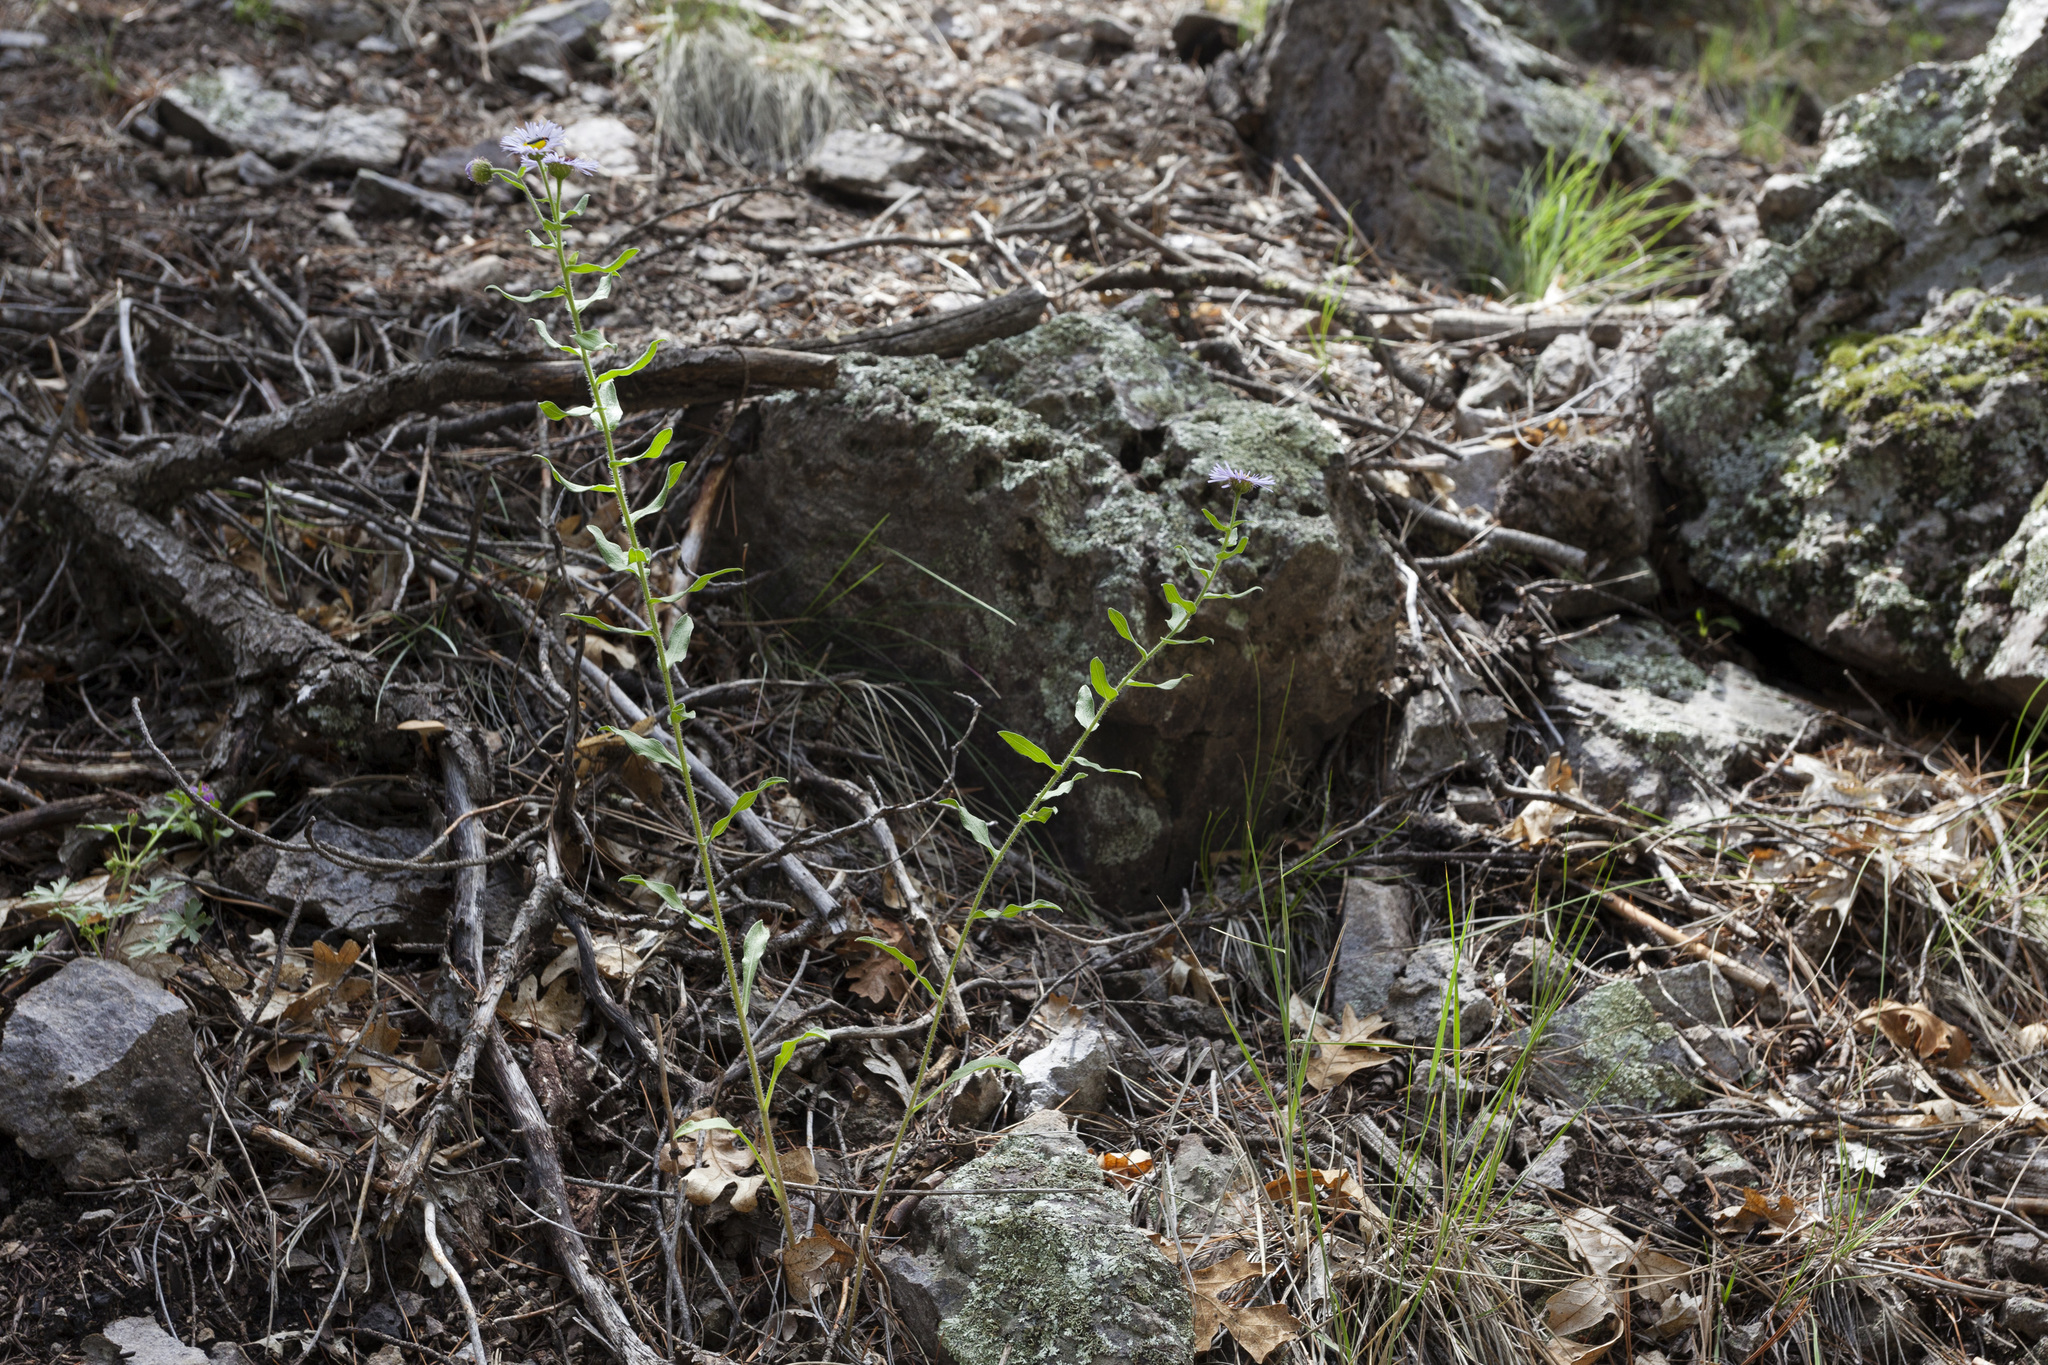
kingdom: Plantae
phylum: Tracheophyta
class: Magnoliopsida
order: Asterales
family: Asteraceae
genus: Erigeron
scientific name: Erigeron speciosus
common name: Aspen fleabane
